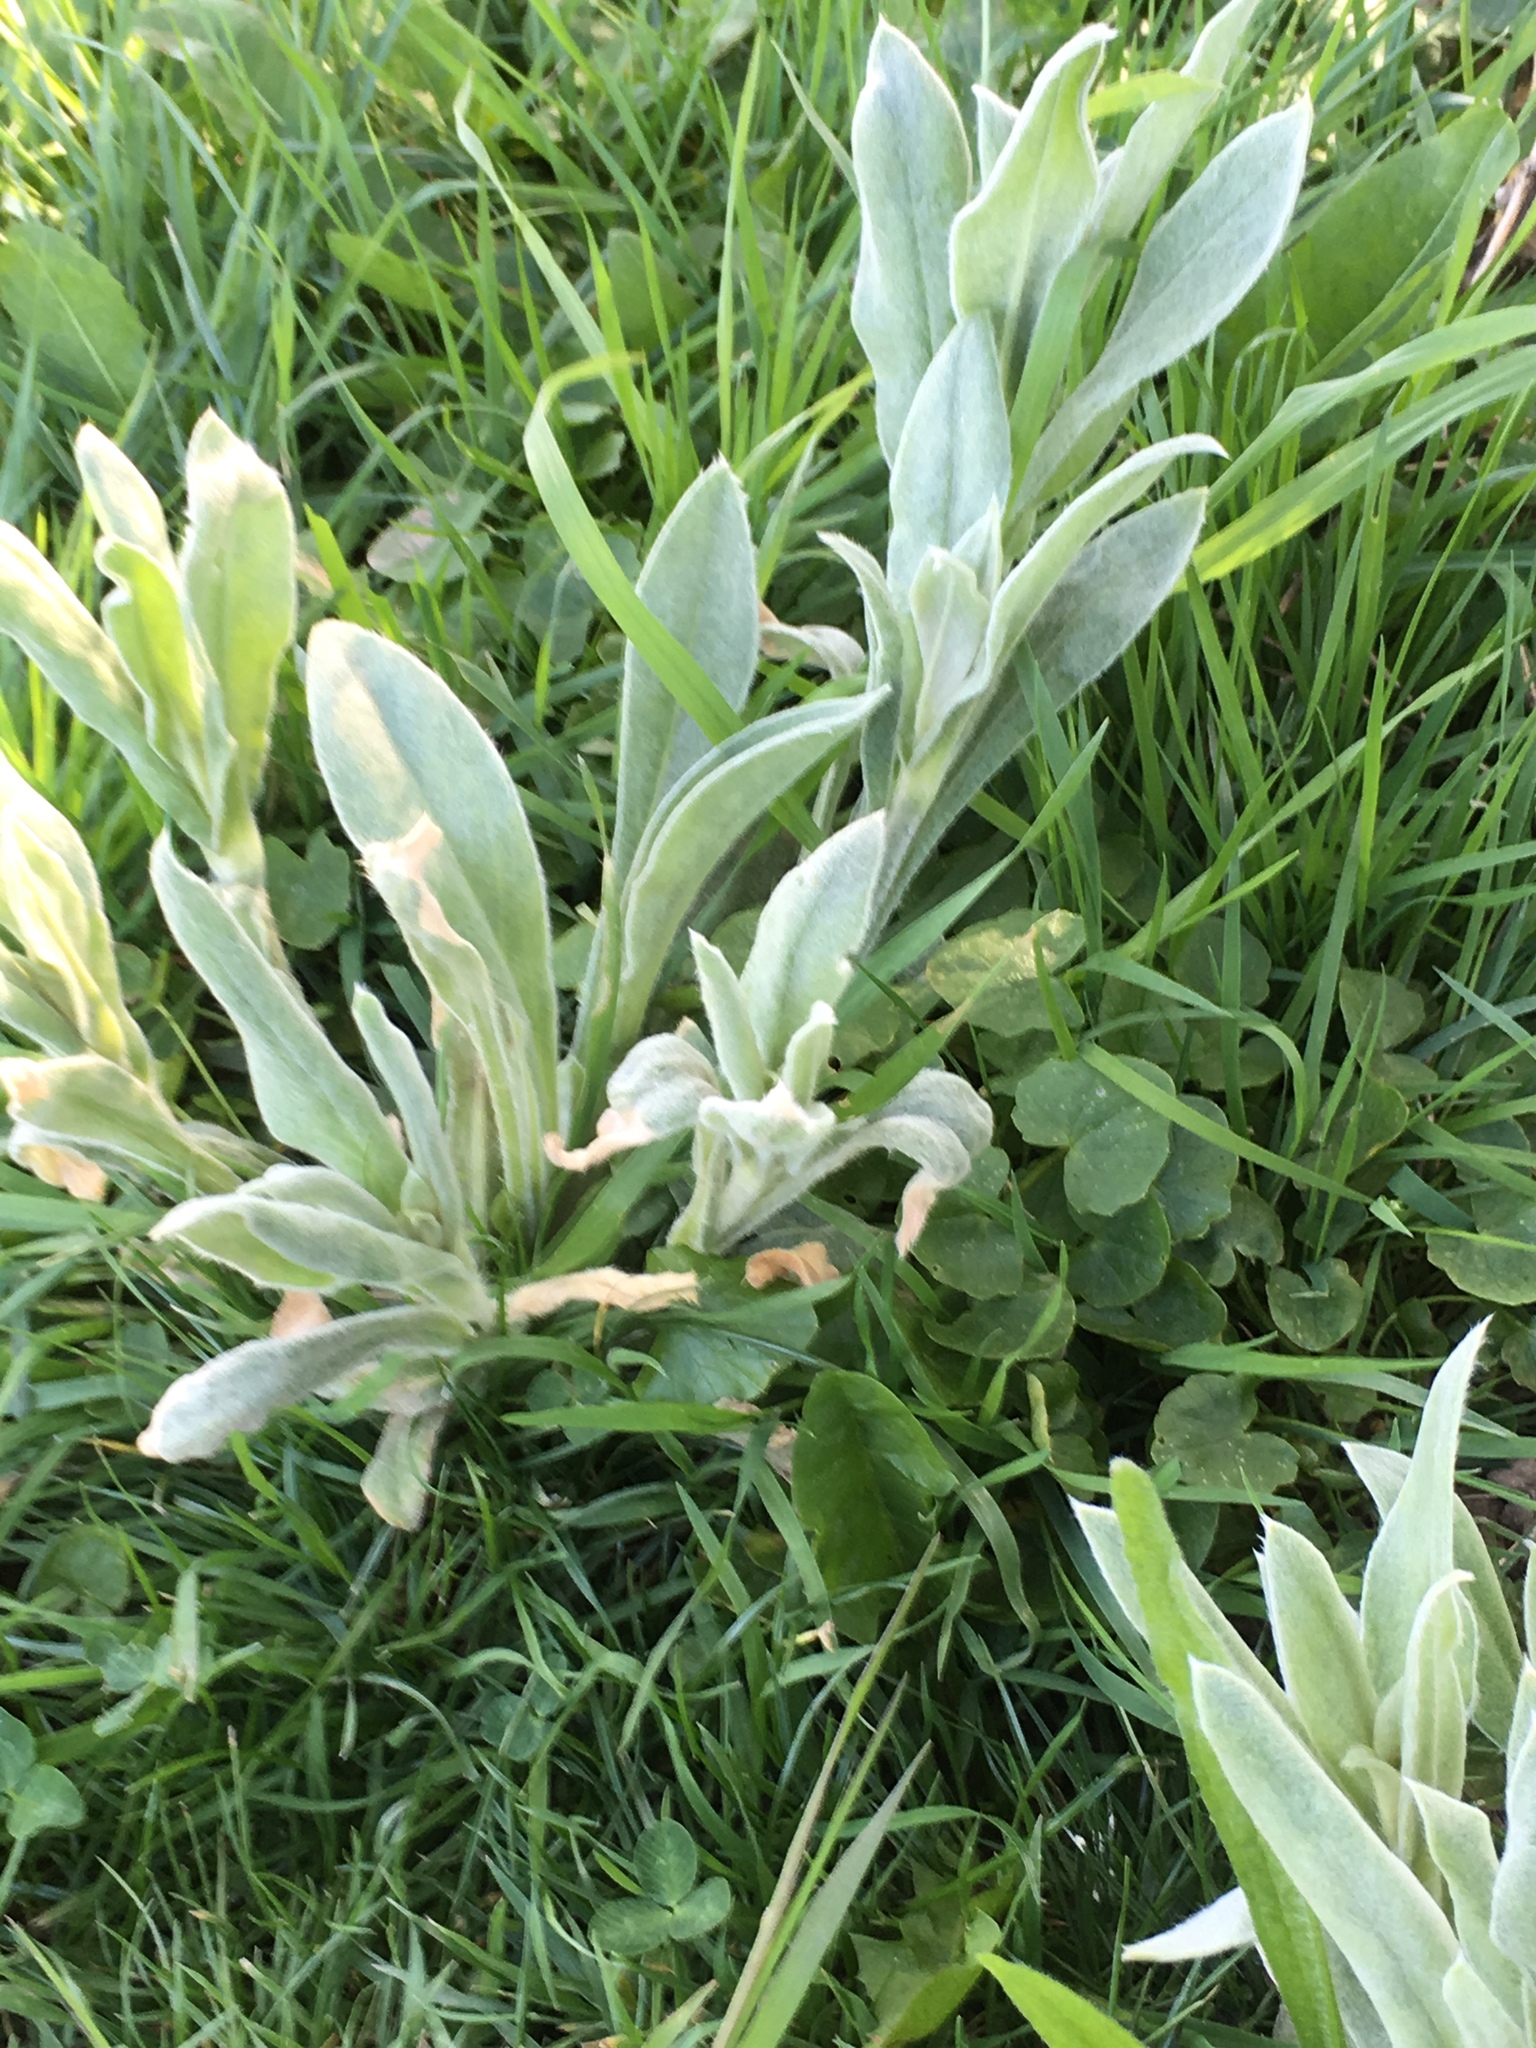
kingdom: Plantae
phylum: Tracheophyta
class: Magnoliopsida
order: Caryophyllales
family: Caryophyllaceae
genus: Silene
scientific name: Silene coronaria
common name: Rose campion
